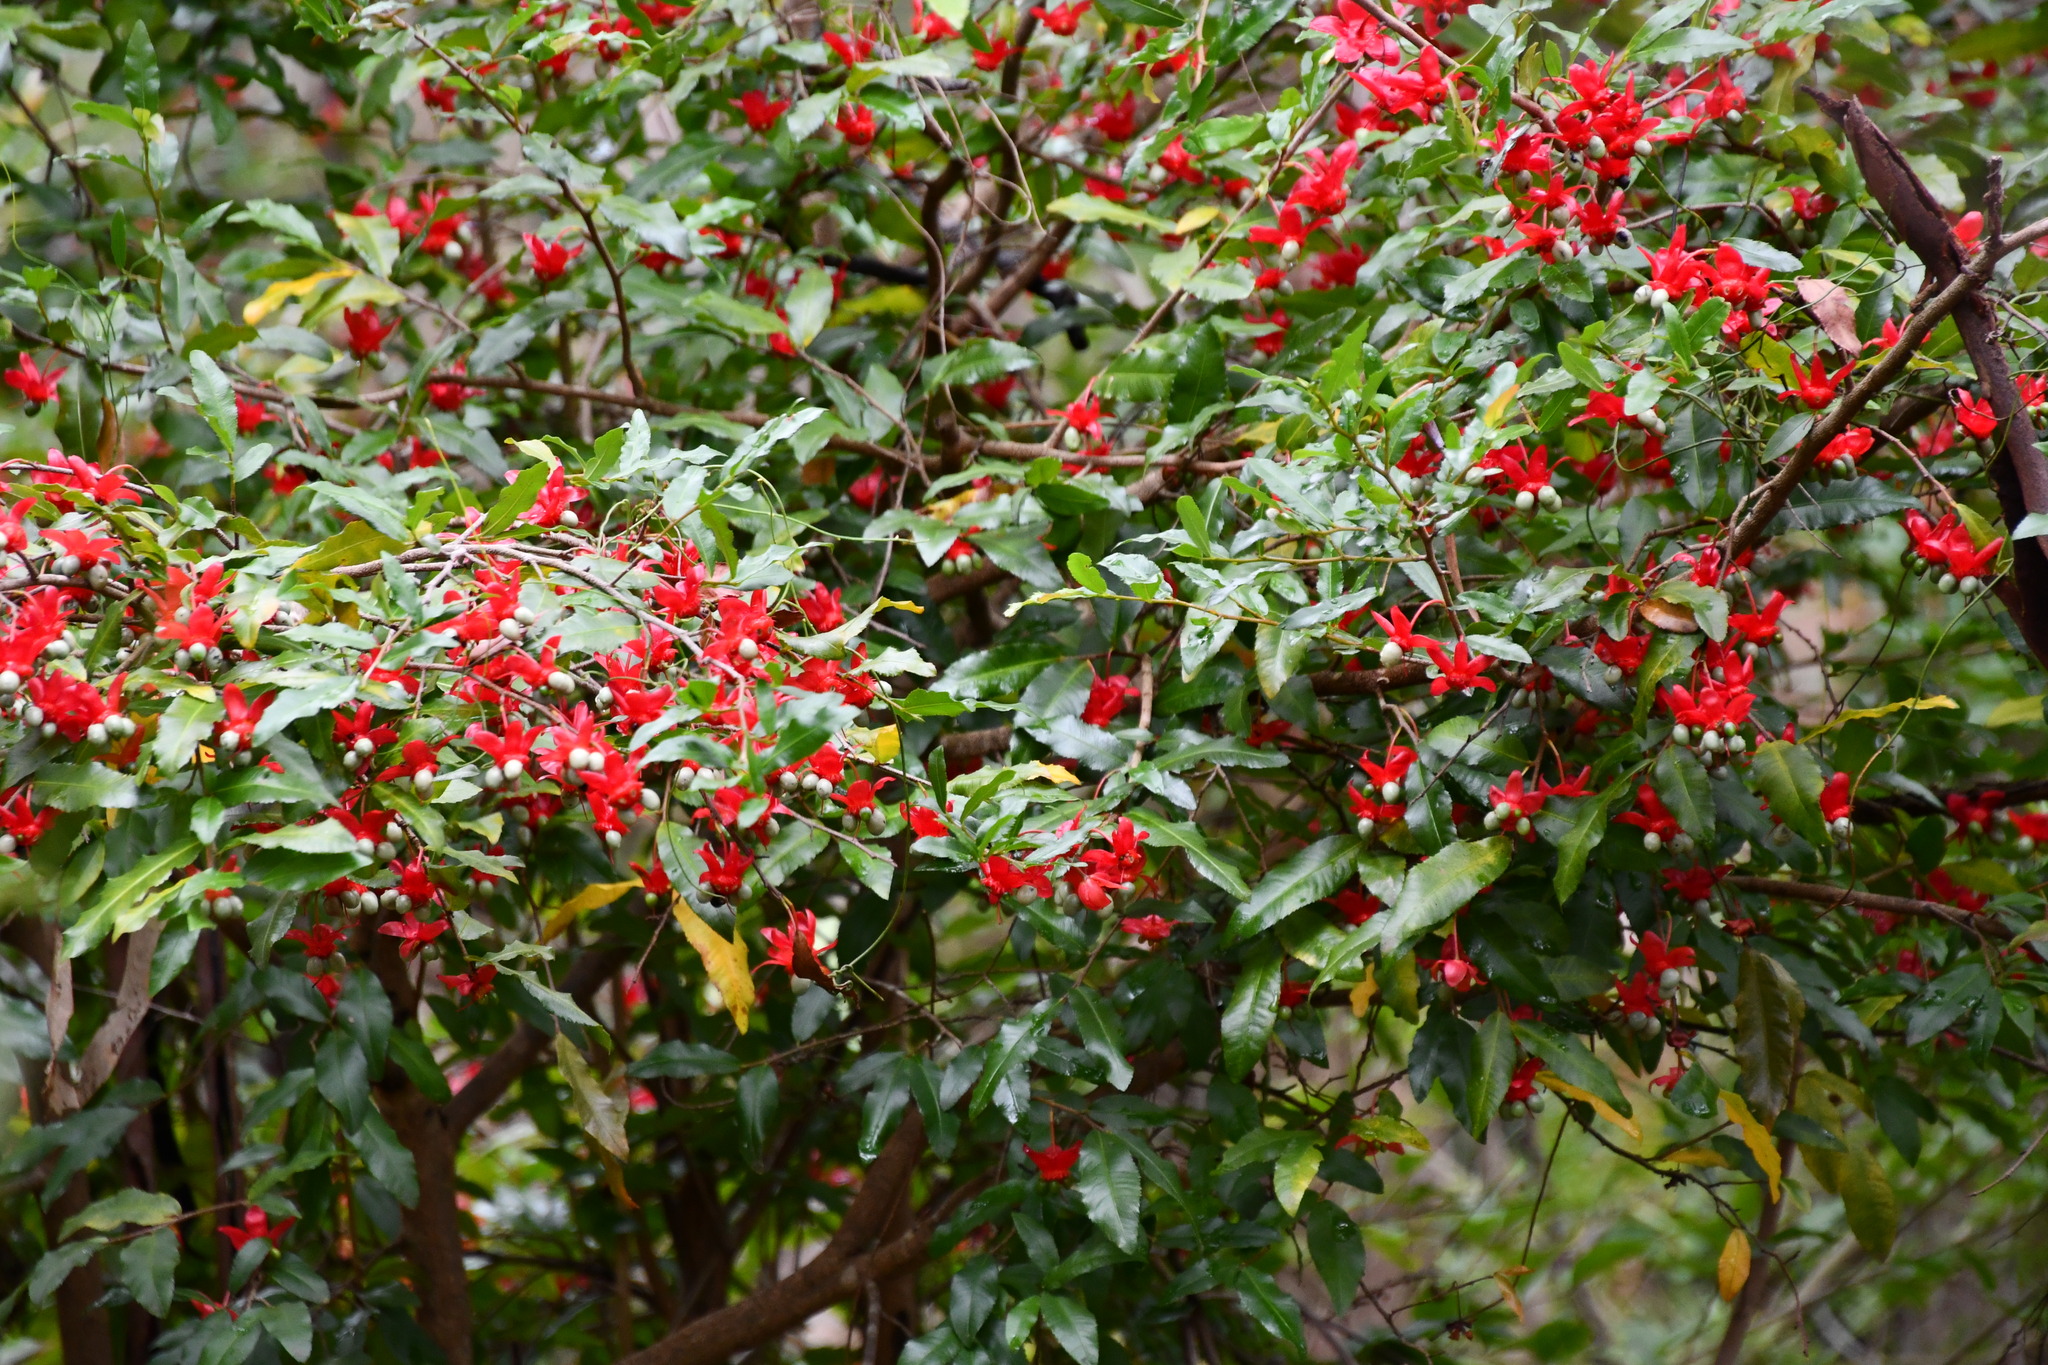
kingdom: Plantae
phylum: Tracheophyta
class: Magnoliopsida
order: Malpighiales
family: Ochnaceae
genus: Ochna
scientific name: Ochna serrulata
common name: Mickey mouse plant
